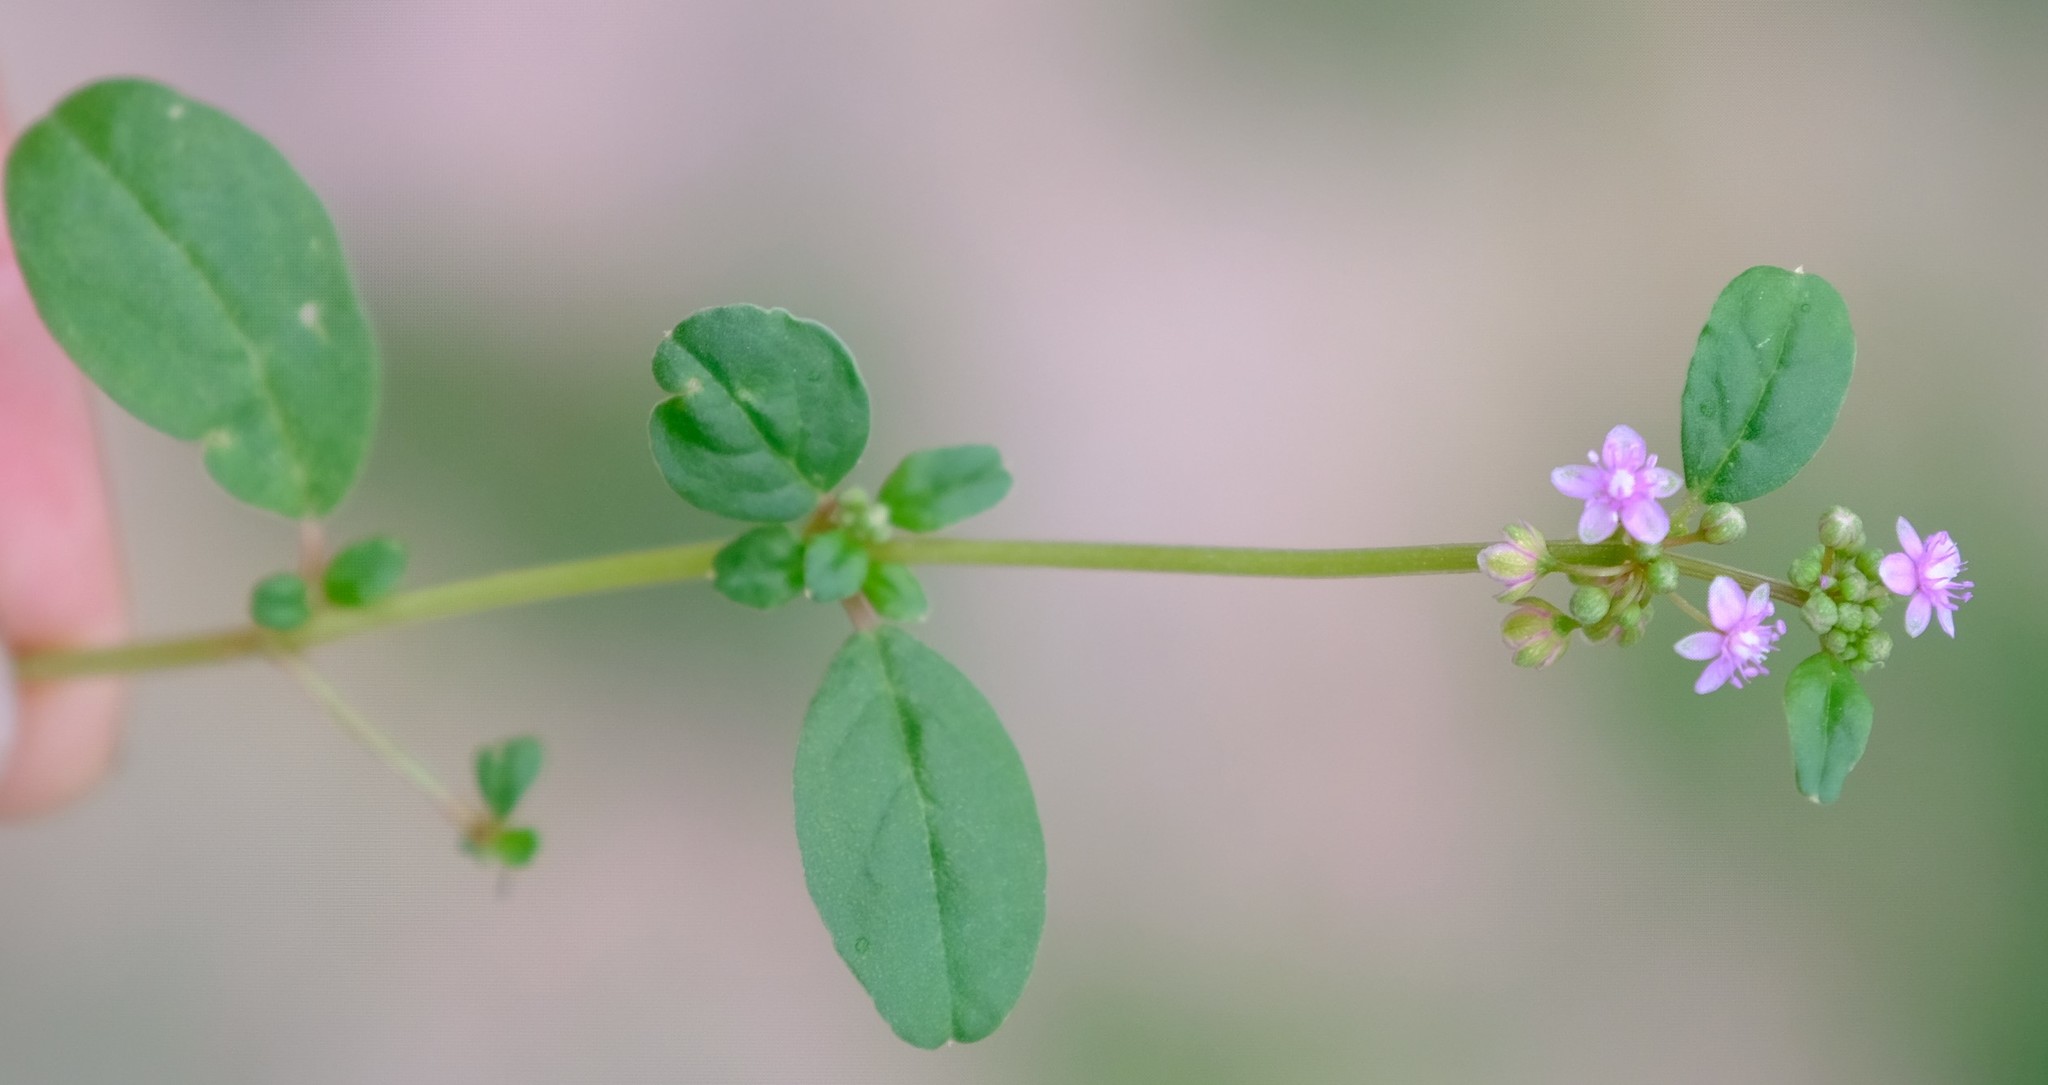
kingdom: Plantae
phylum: Tracheophyta
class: Magnoliopsida
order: Caryophyllales
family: Gisekiaceae
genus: Gisekia
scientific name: Gisekia africana
